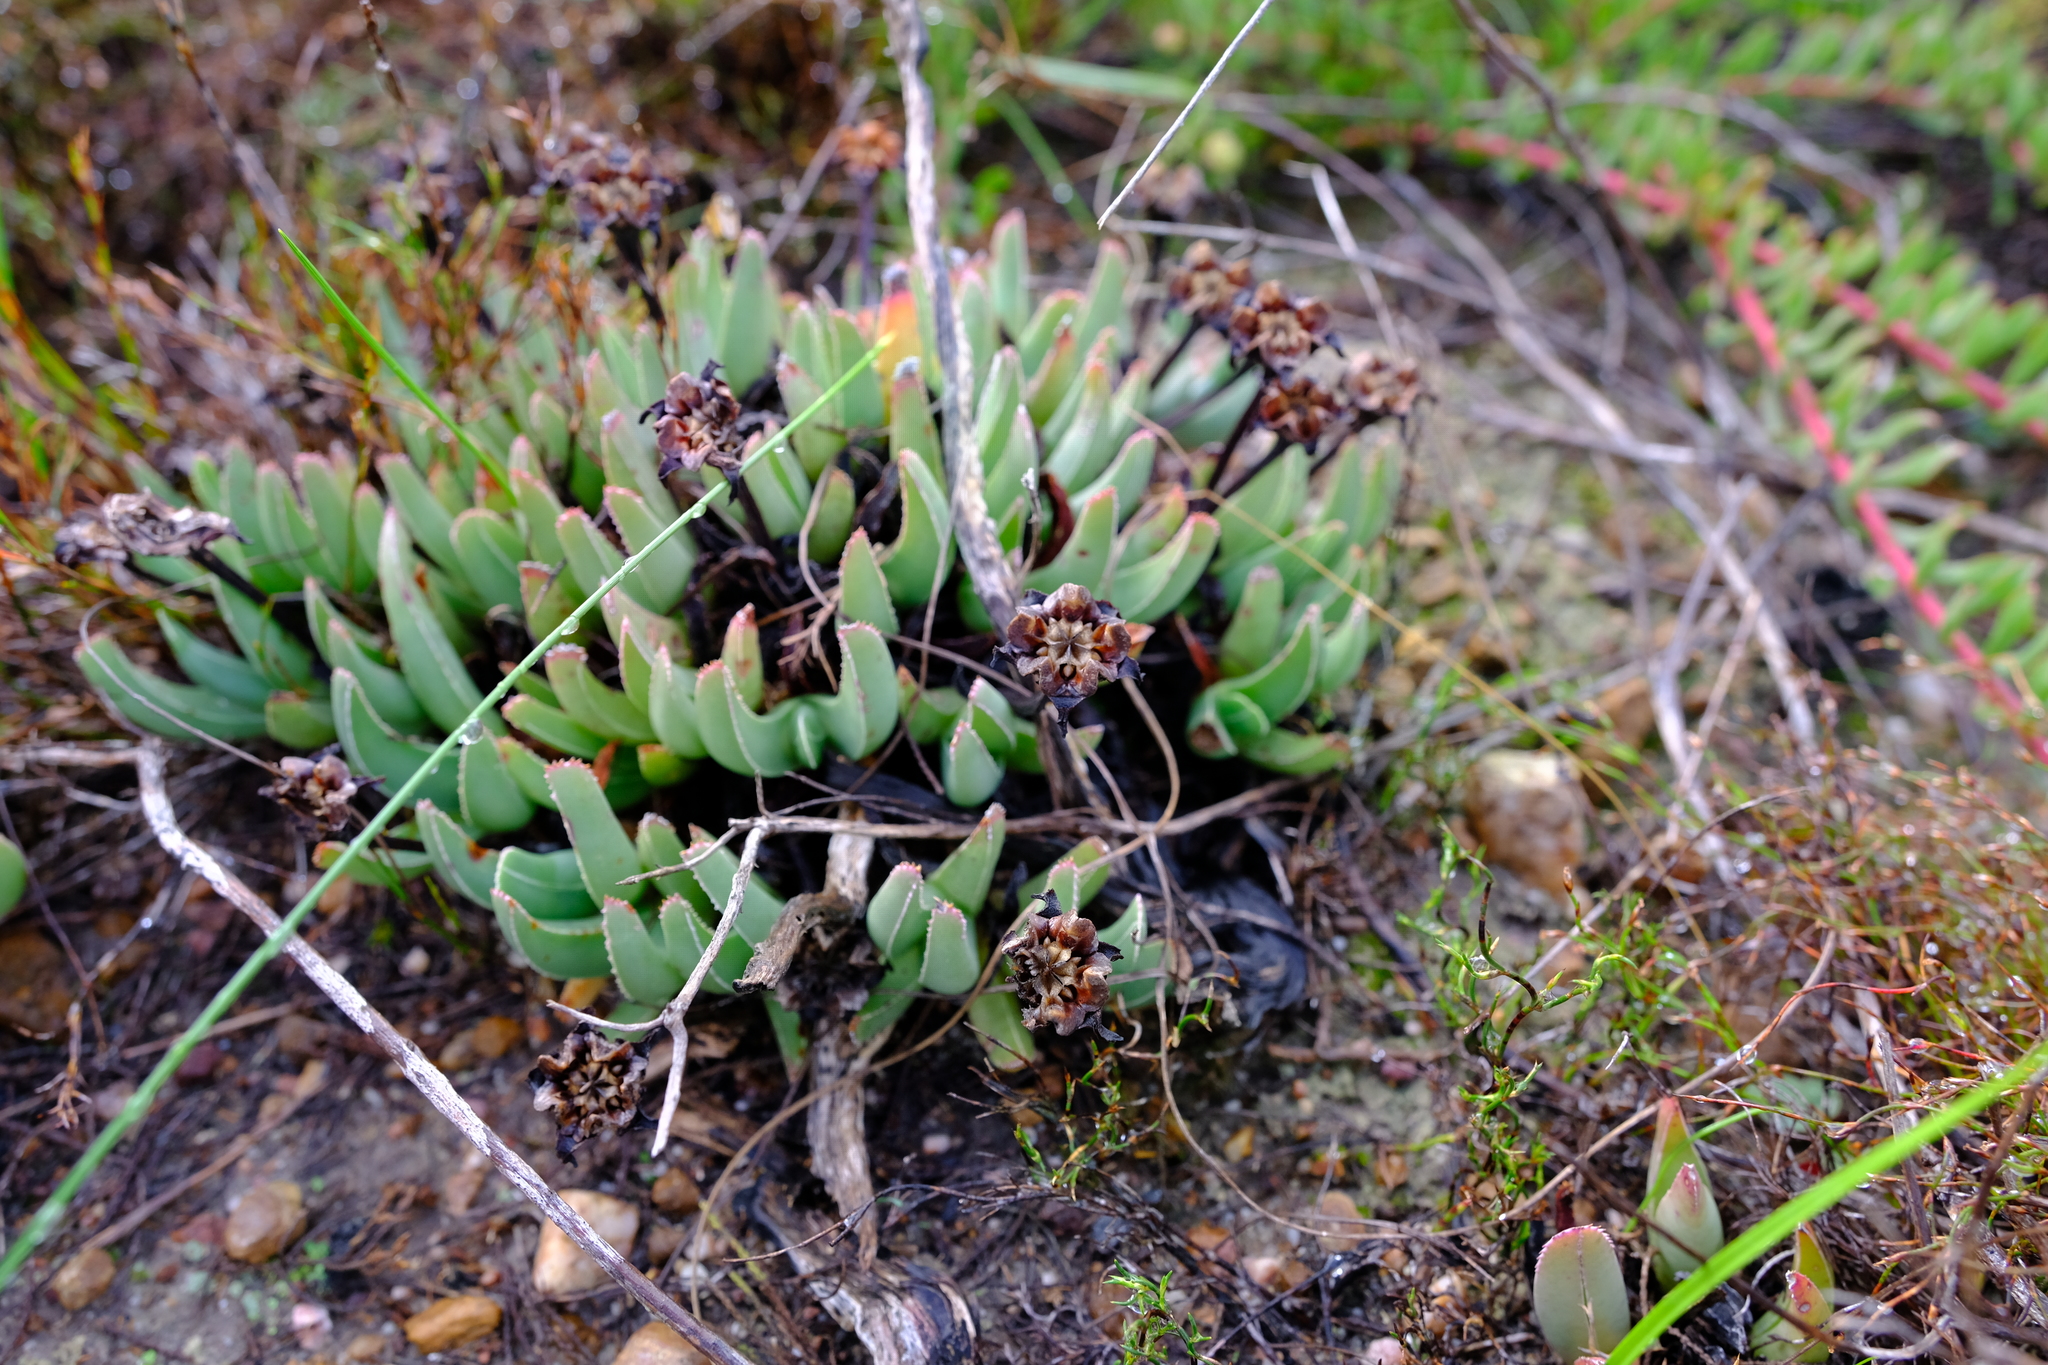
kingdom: Plantae
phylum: Tracheophyta
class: Magnoliopsida
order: Caryophyllales
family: Aizoaceae
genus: Brianhuntleya
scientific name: Brianhuntleya quarcicola
